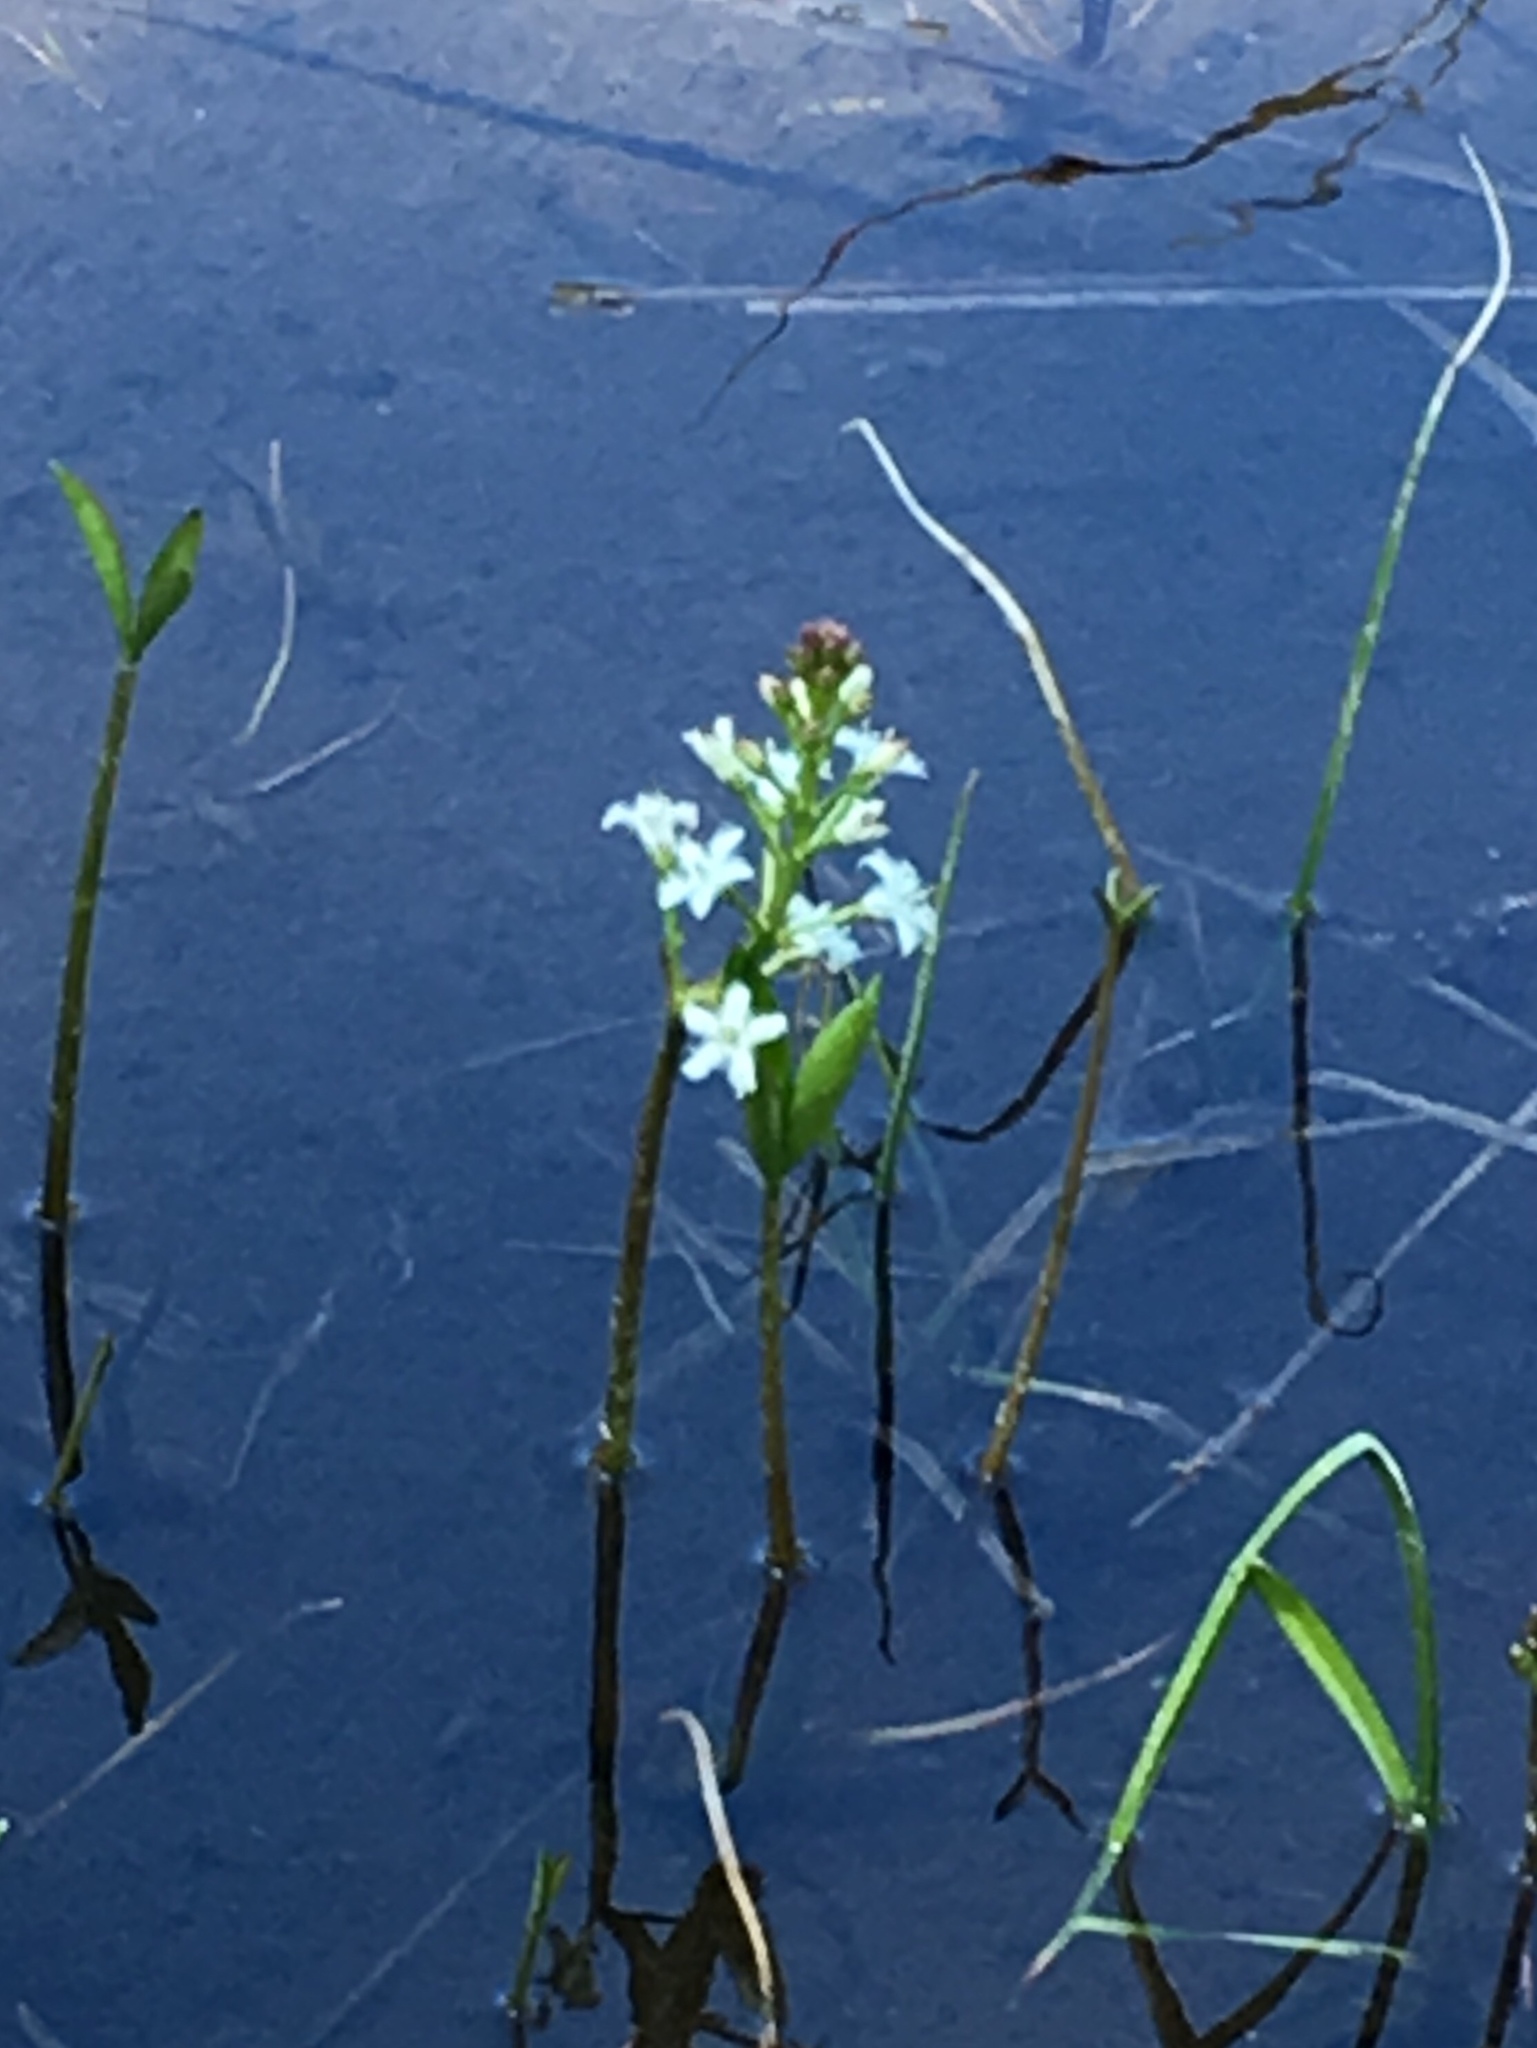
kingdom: Plantae
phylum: Tracheophyta
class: Magnoliopsida
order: Asterales
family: Menyanthaceae
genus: Menyanthes
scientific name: Menyanthes trifoliata
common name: Bogbean
